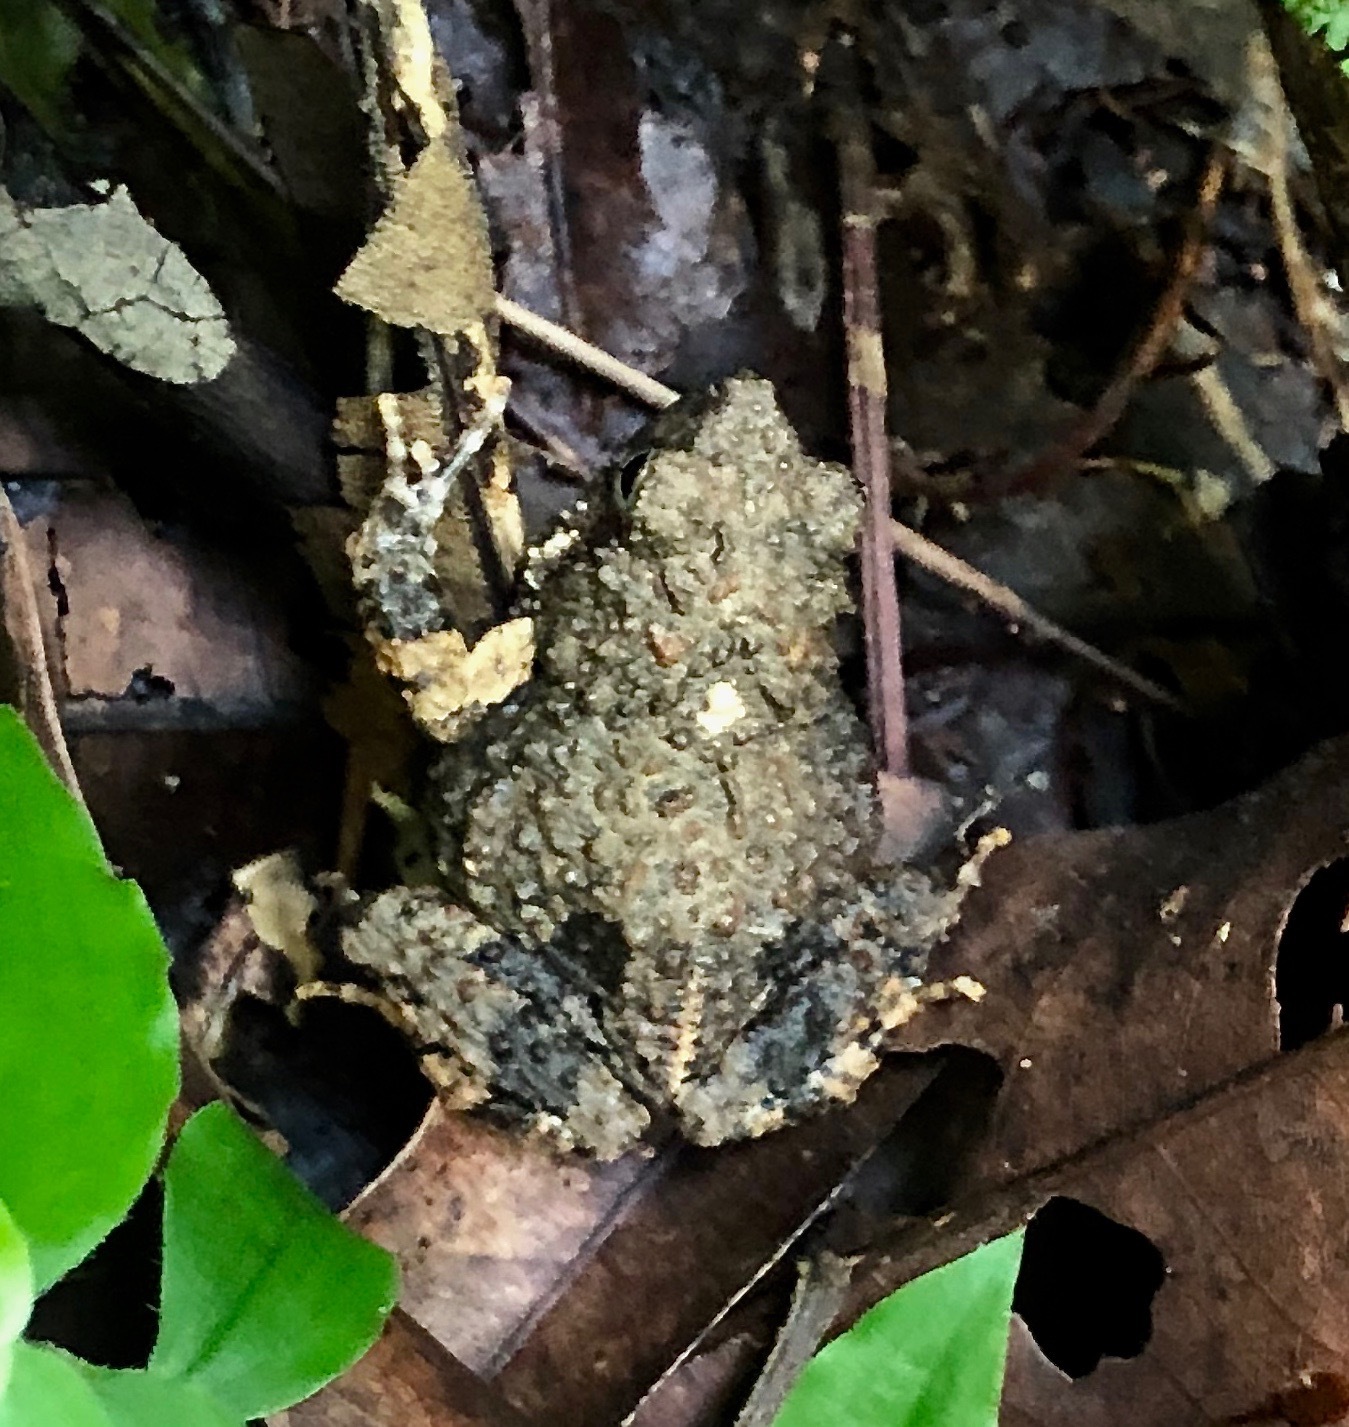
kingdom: Animalia
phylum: Chordata
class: Amphibia
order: Anura
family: Leptodactylidae
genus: Engystomops
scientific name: Engystomops pustulosus
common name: Tungara frog
